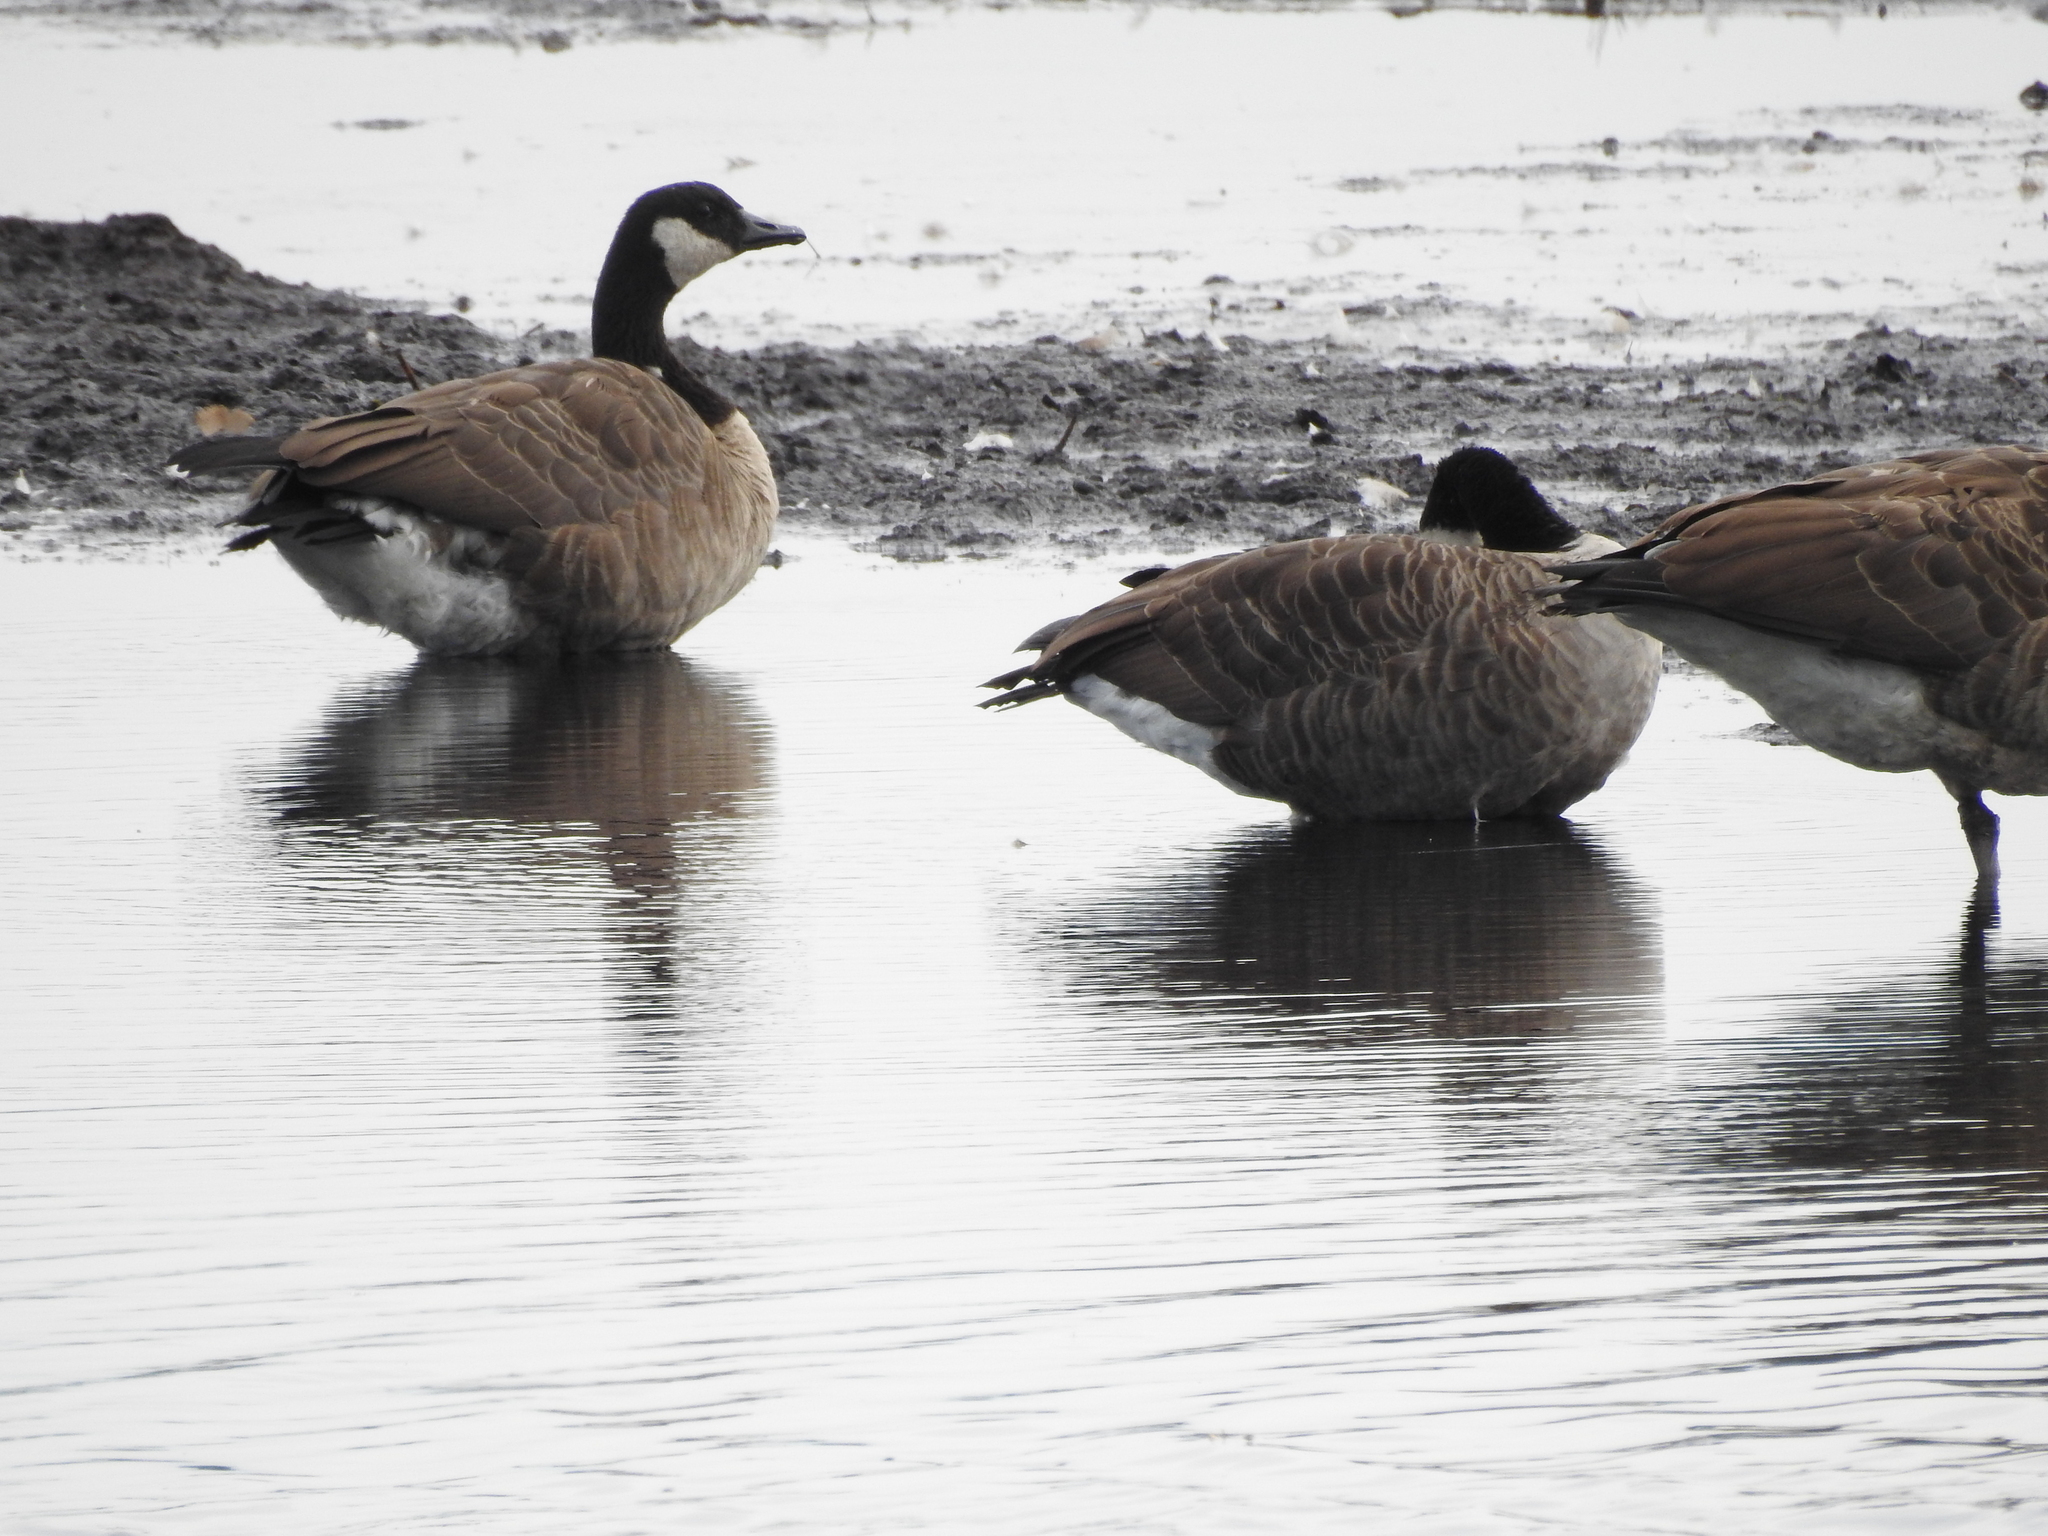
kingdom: Animalia
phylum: Chordata
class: Aves
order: Anseriformes
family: Anatidae
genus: Branta
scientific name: Branta canadensis
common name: Canada goose
